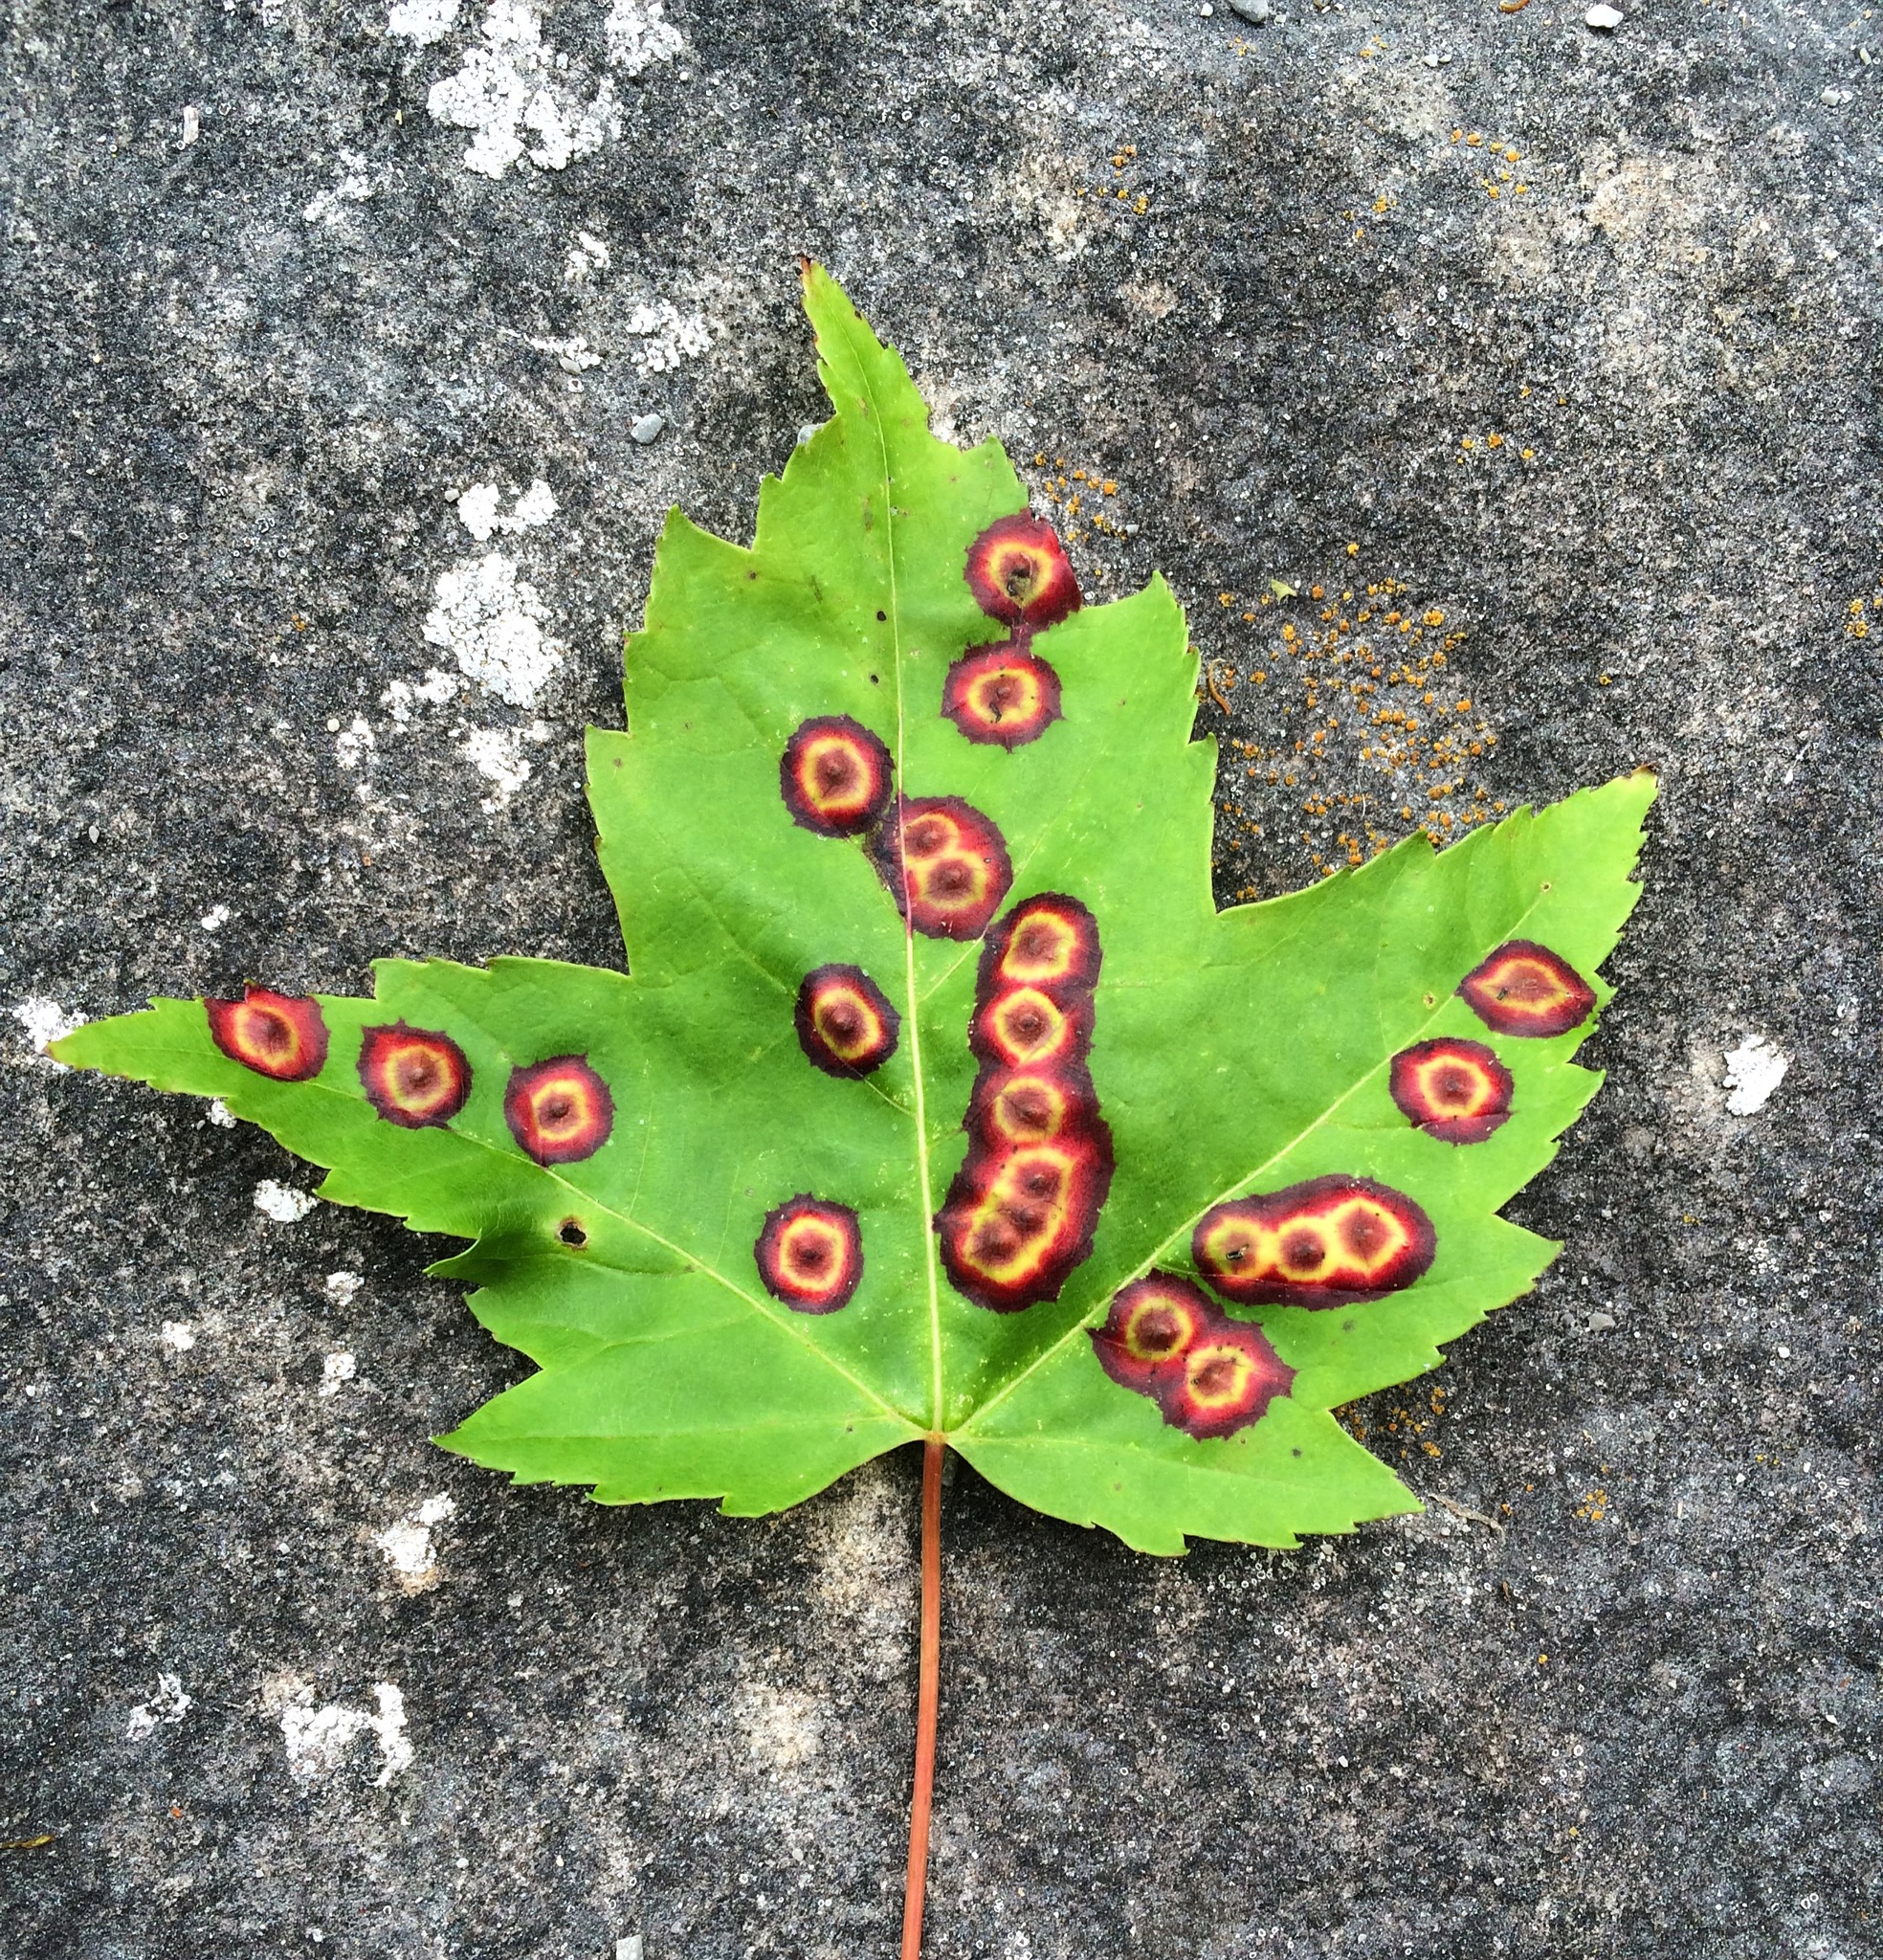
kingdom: Animalia
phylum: Arthropoda
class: Insecta
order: Diptera
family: Cecidomyiidae
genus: Acericecis
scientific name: Acericecis ocellaris
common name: Ocellate gall midge
